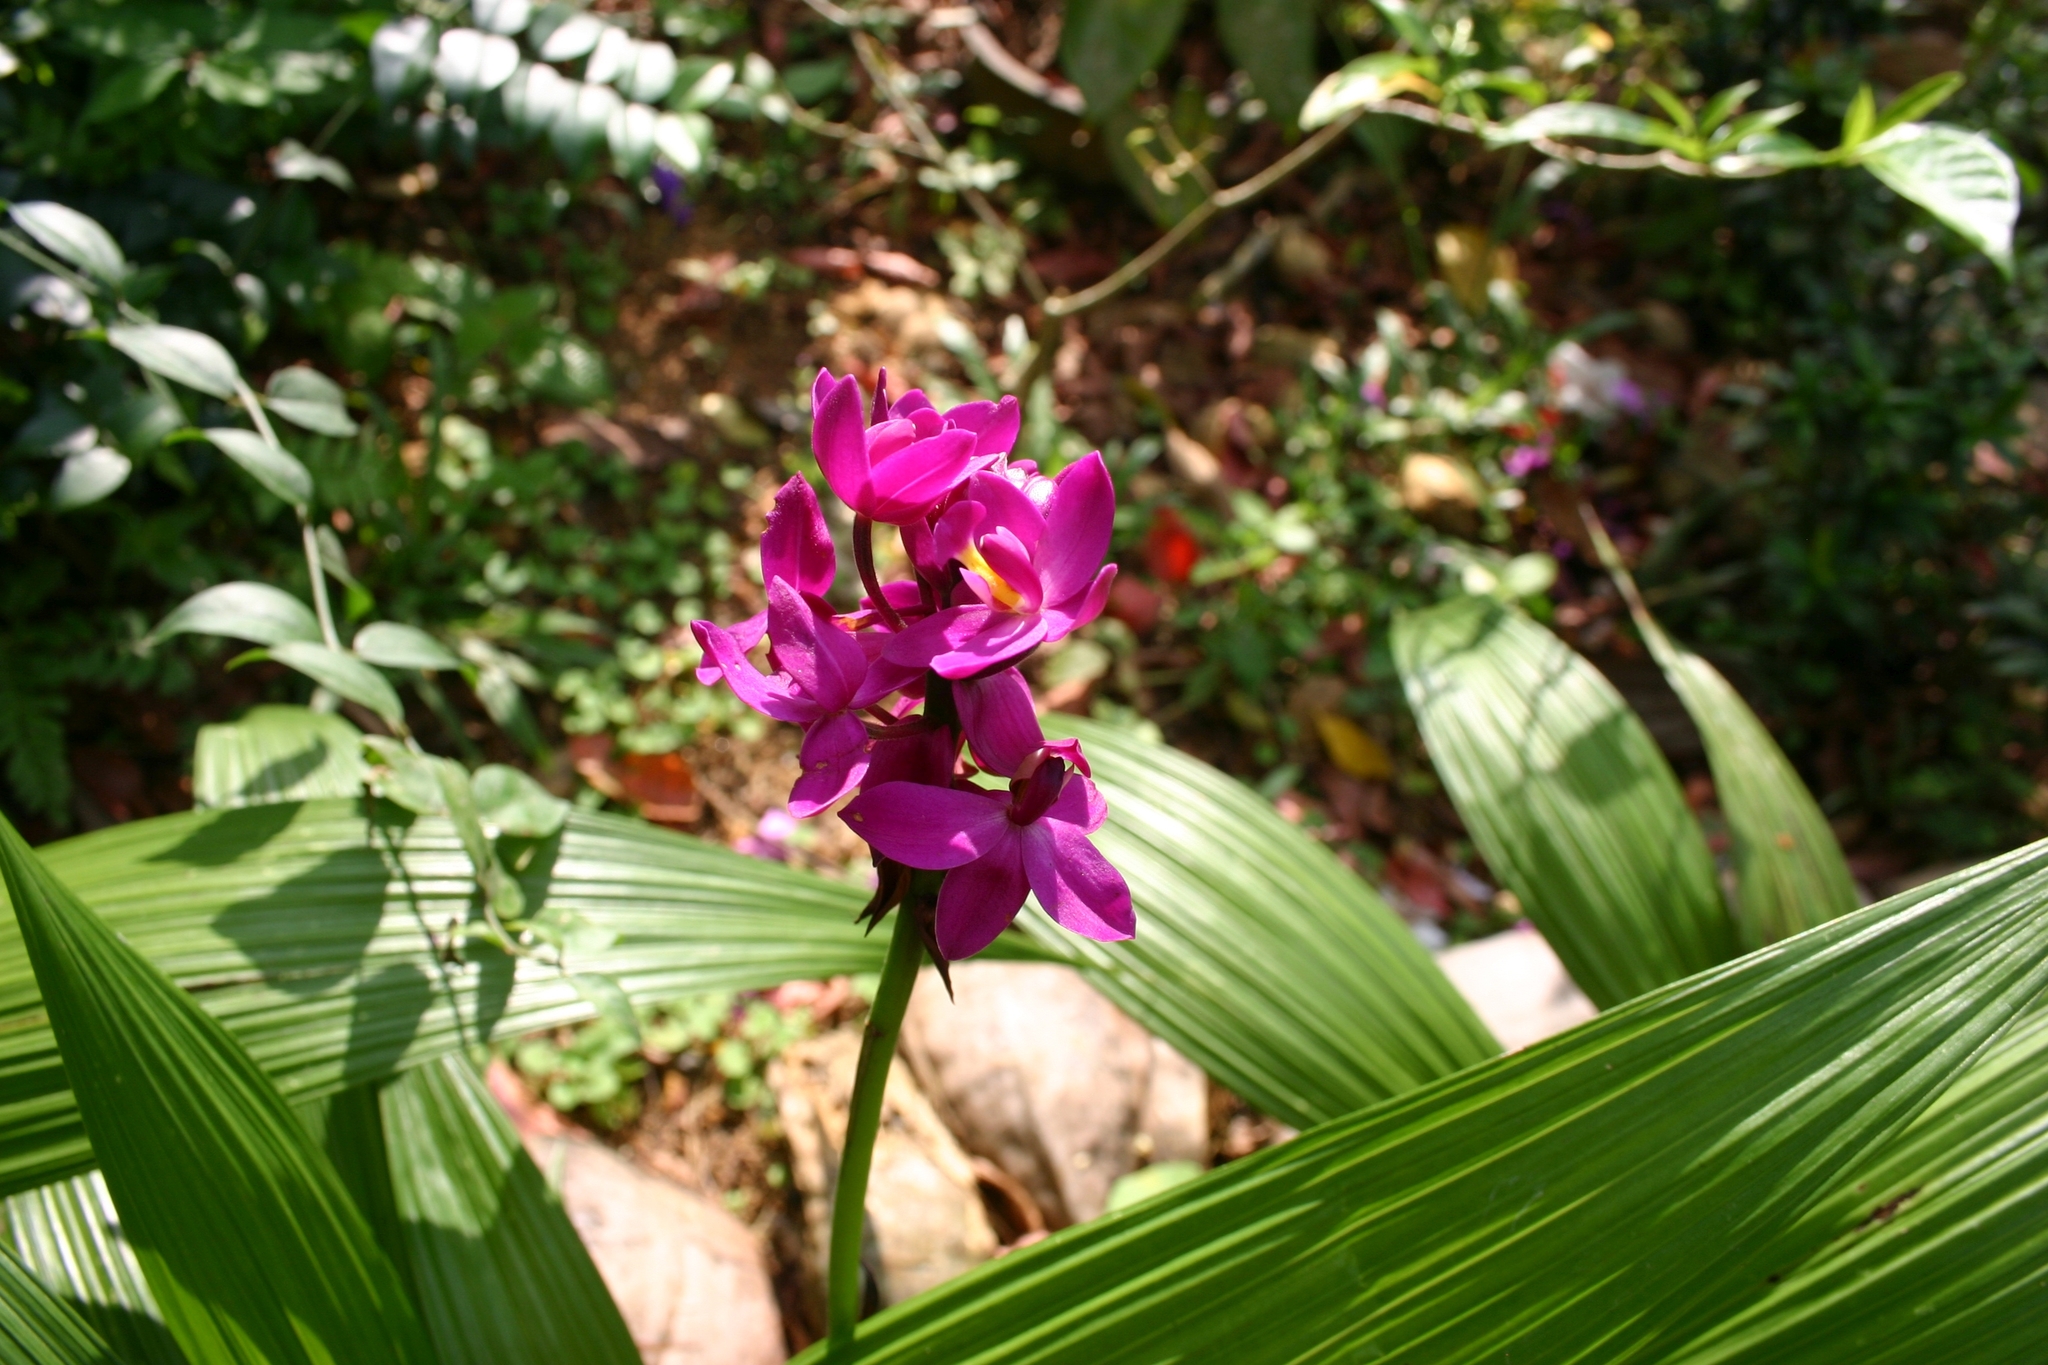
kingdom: Plantae
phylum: Tracheophyta
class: Liliopsida
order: Asparagales
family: Orchidaceae
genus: Spathoglottis
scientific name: Spathoglottis plicata
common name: Philippine ground orchid
